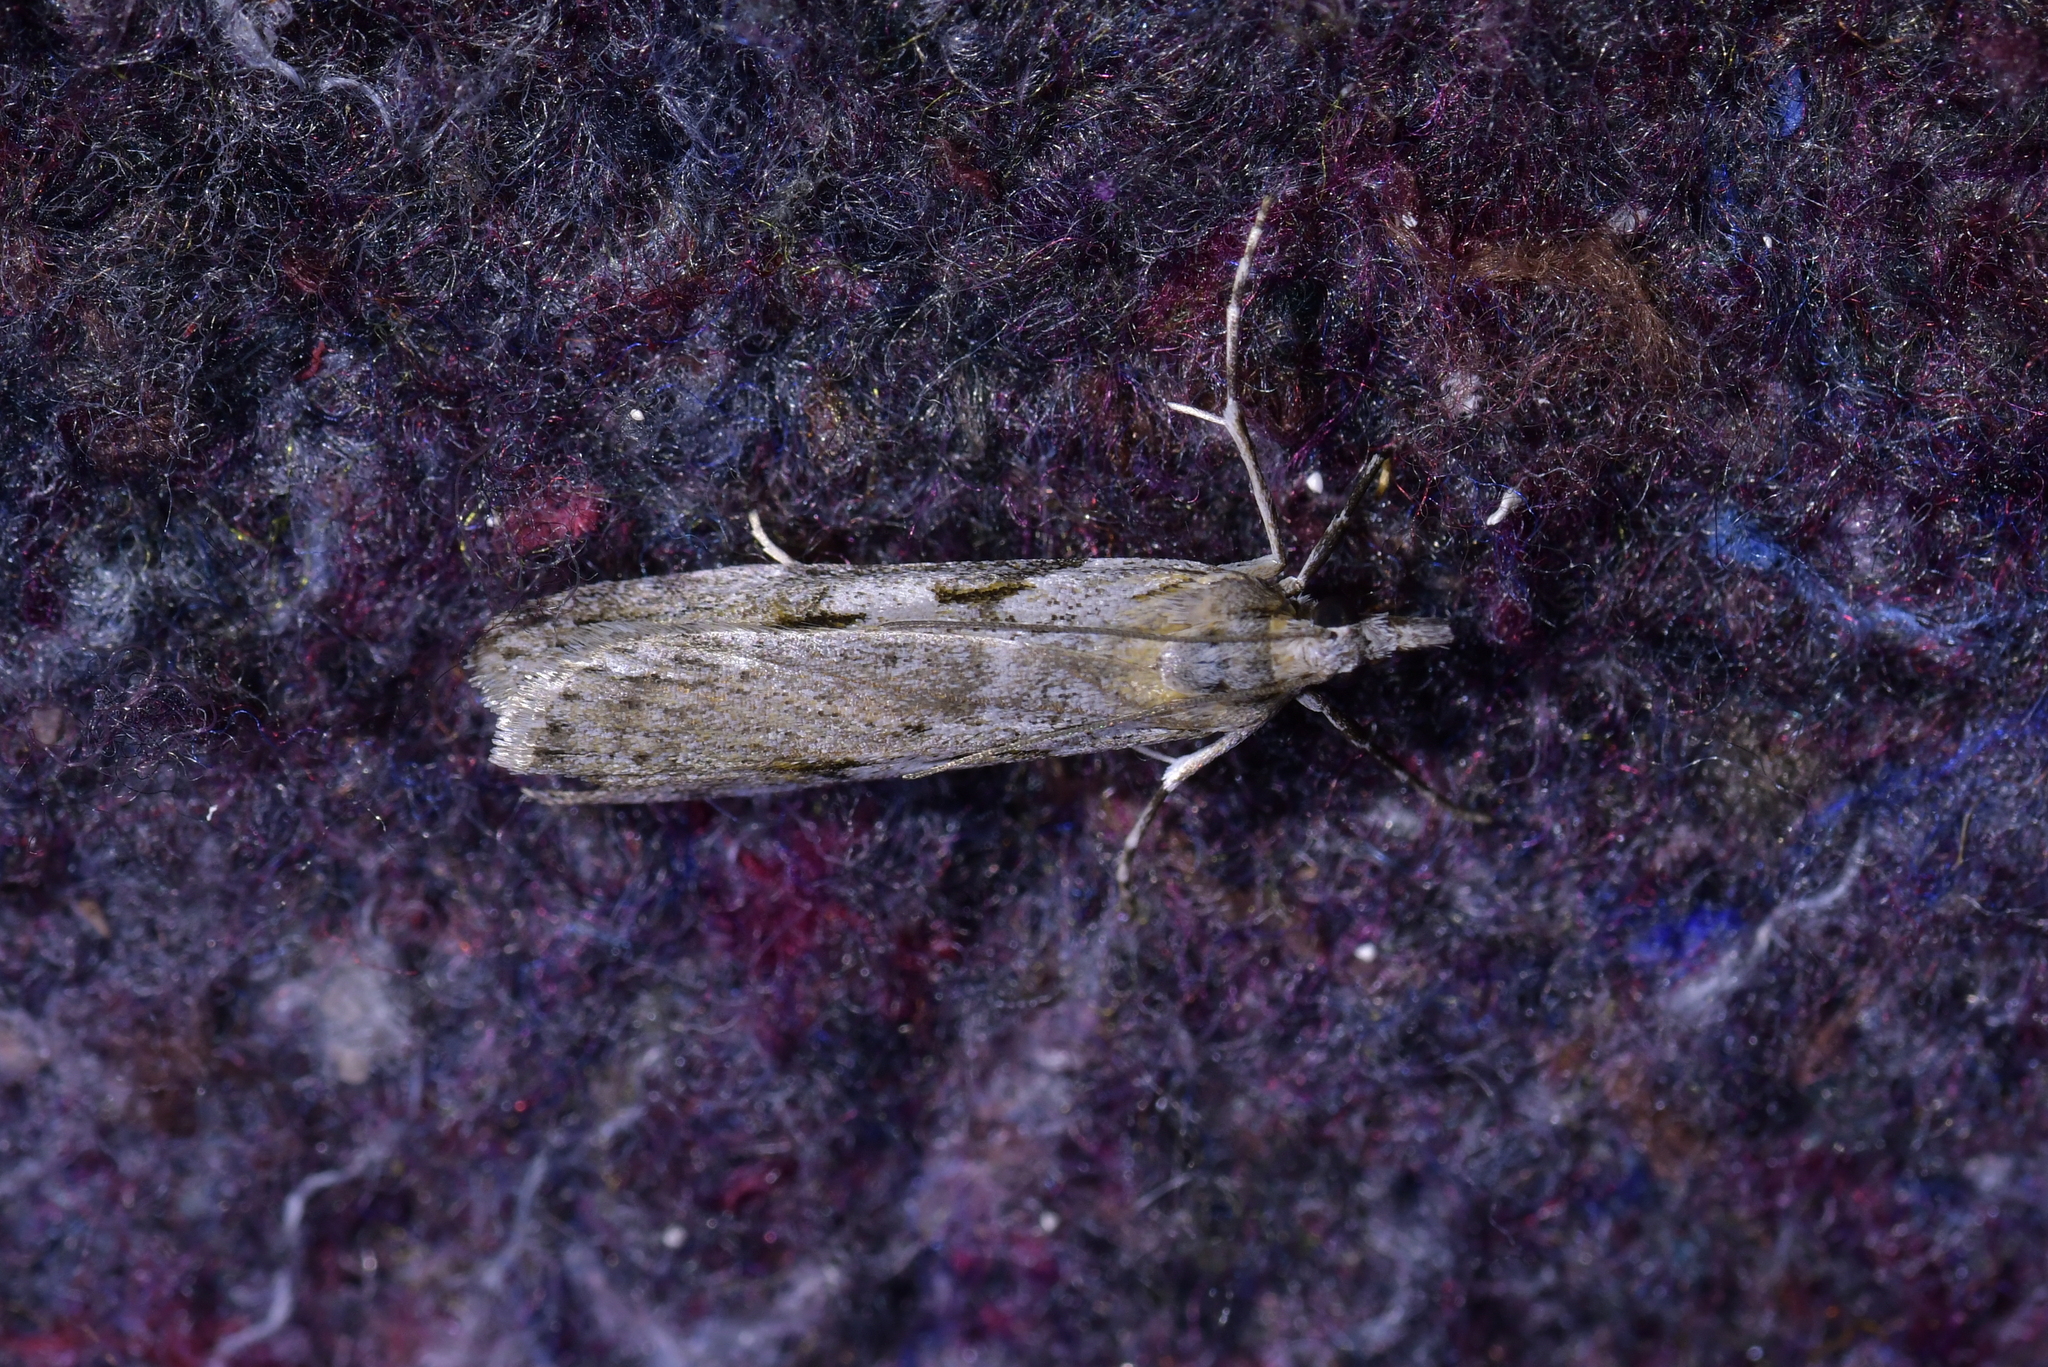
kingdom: Animalia
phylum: Arthropoda
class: Insecta
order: Lepidoptera
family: Crambidae
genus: Scoparia
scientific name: Scoparia halopis
